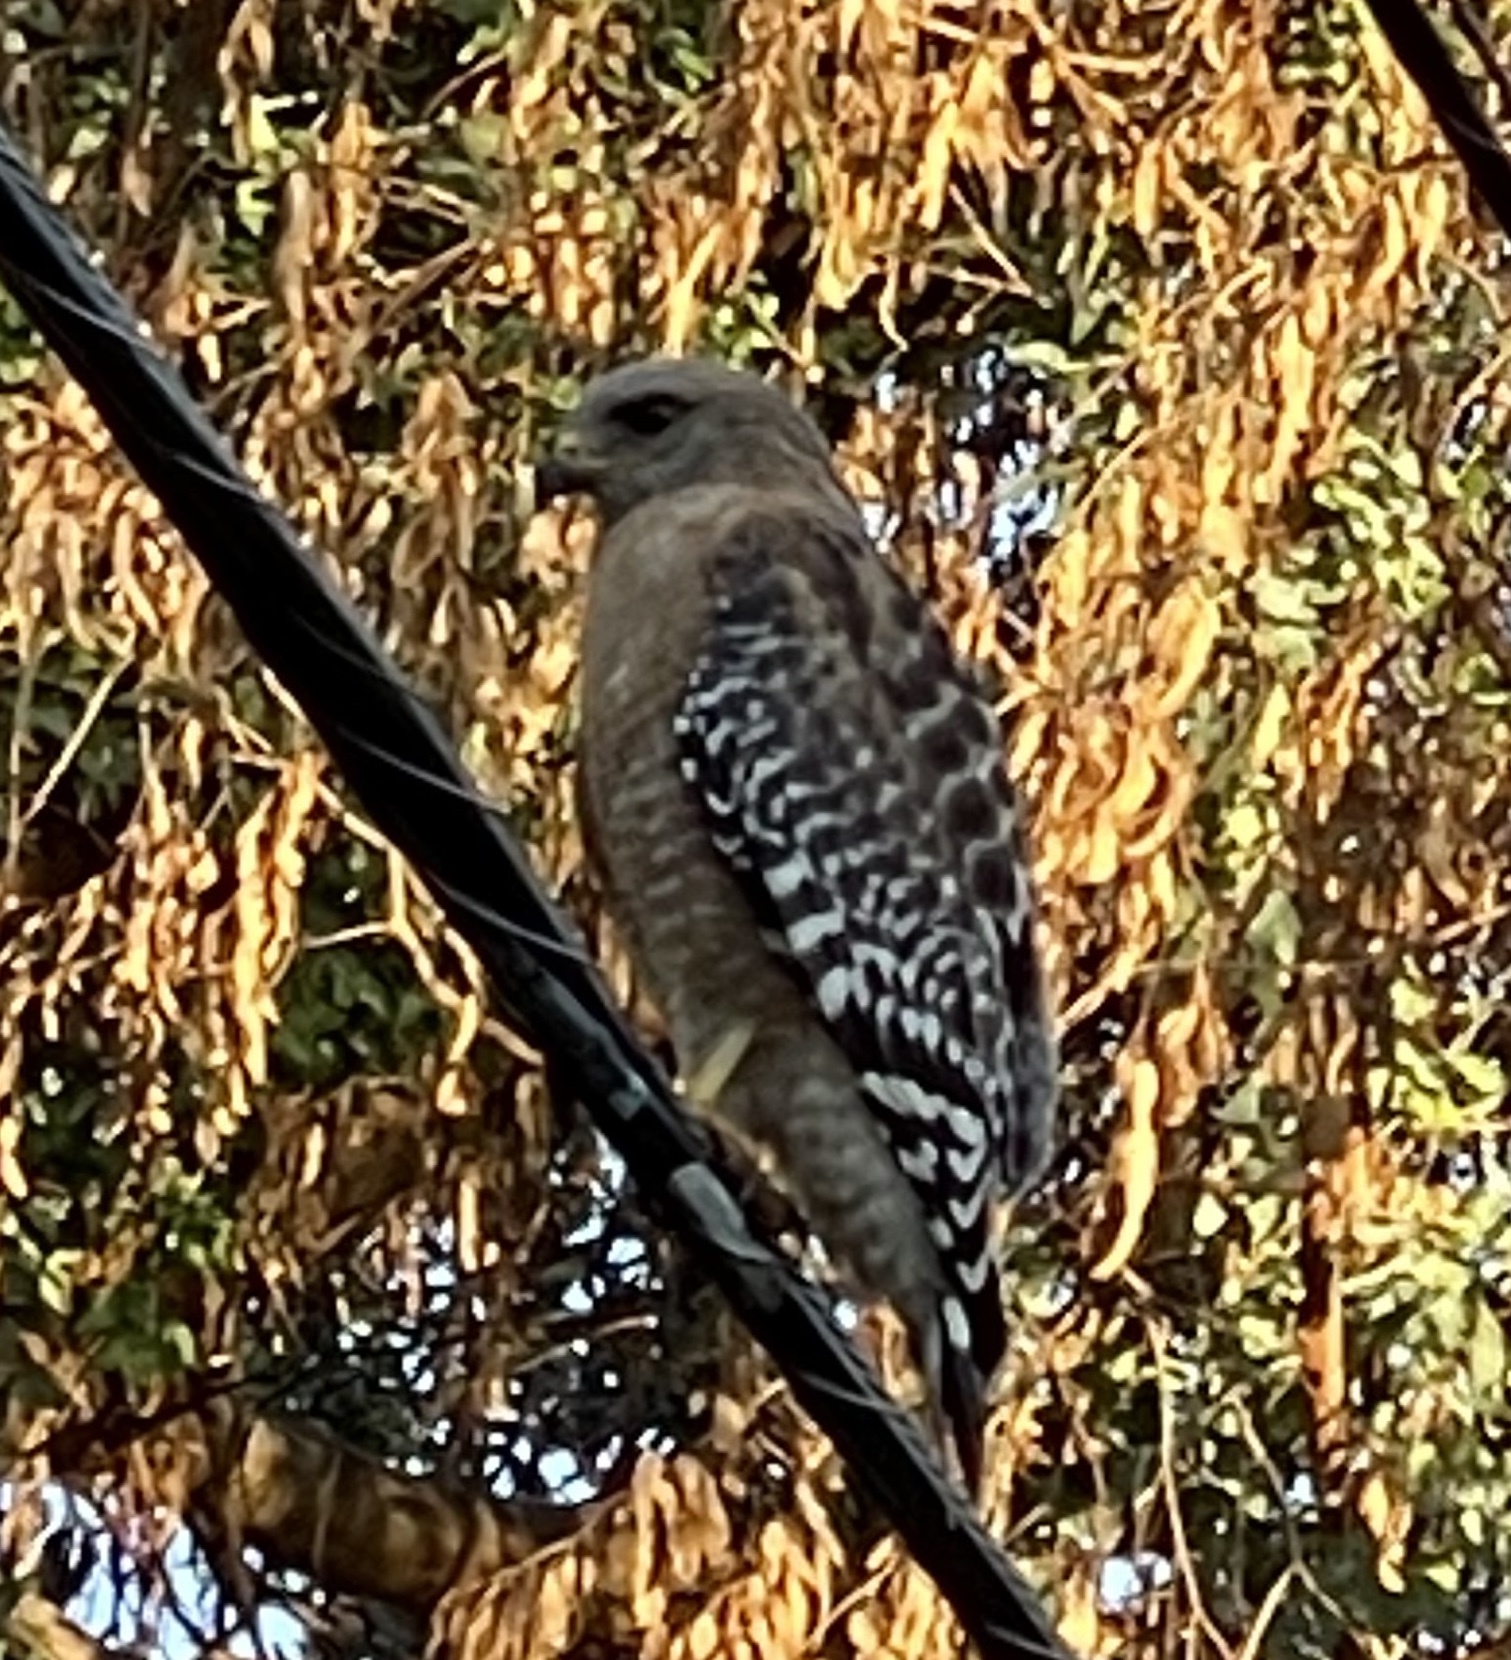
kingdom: Animalia
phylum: Chordata
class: Aves
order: Accipitriformes
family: Accipitridae
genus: Buteo
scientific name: Buteo lineatus
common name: Red-shouldered hawk
